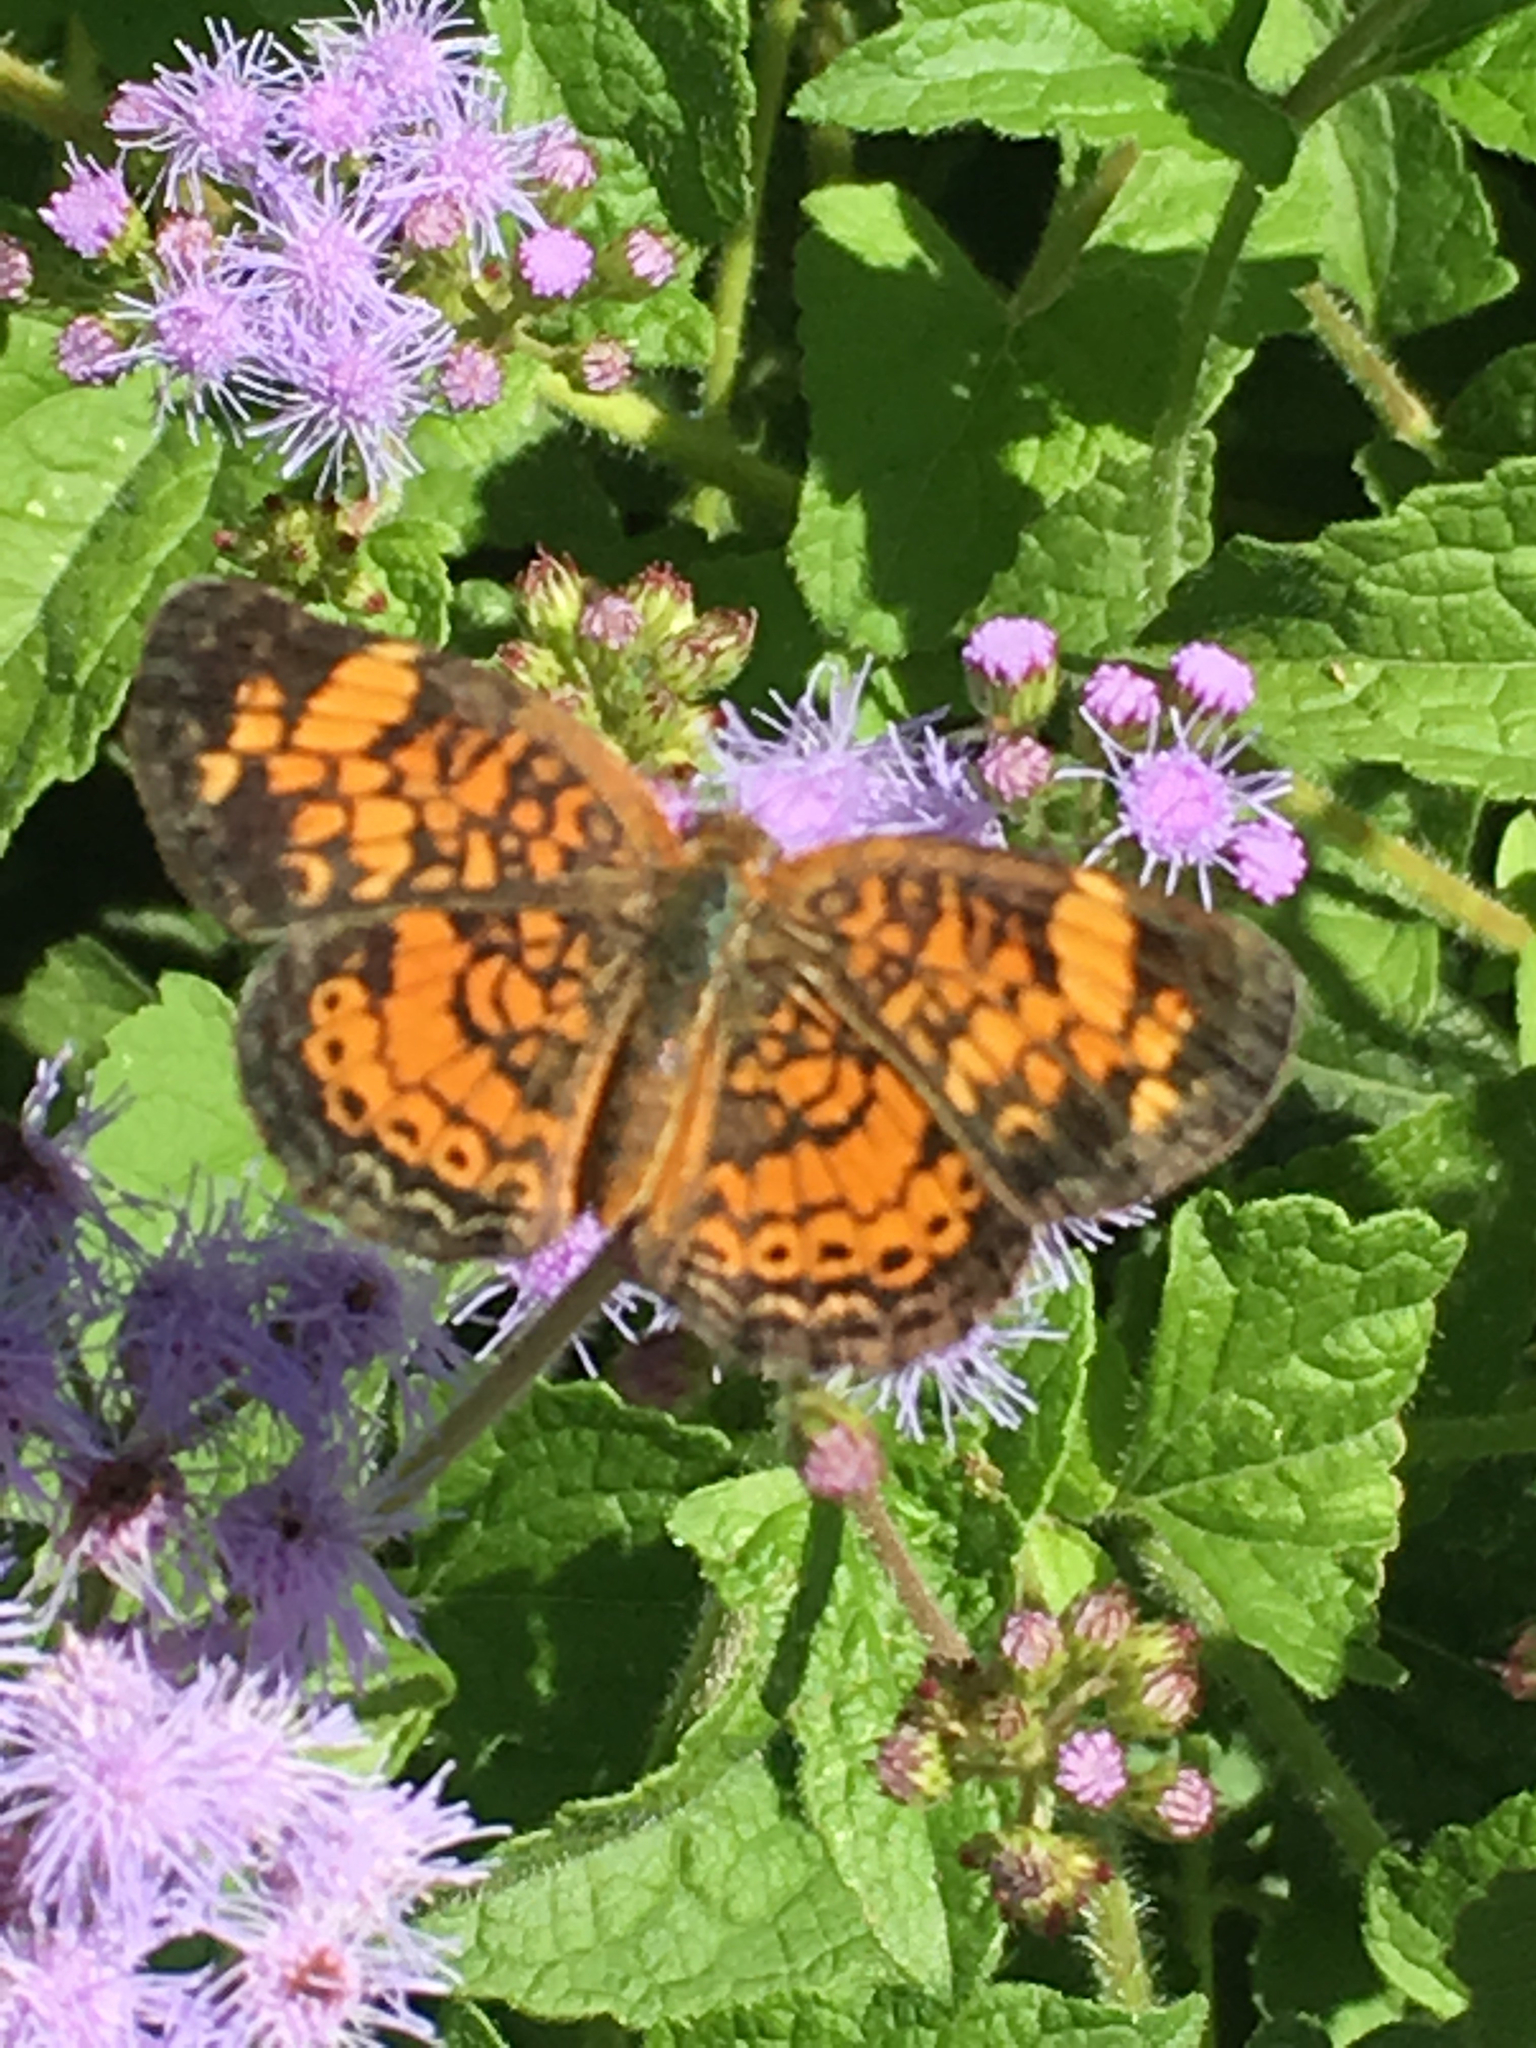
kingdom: Animalia
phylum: Arthropoda
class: Insecta
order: Lepidoptera
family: Nymphalidae
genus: Phyciodes
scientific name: Phyciodes tharos
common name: Pearl crescent
